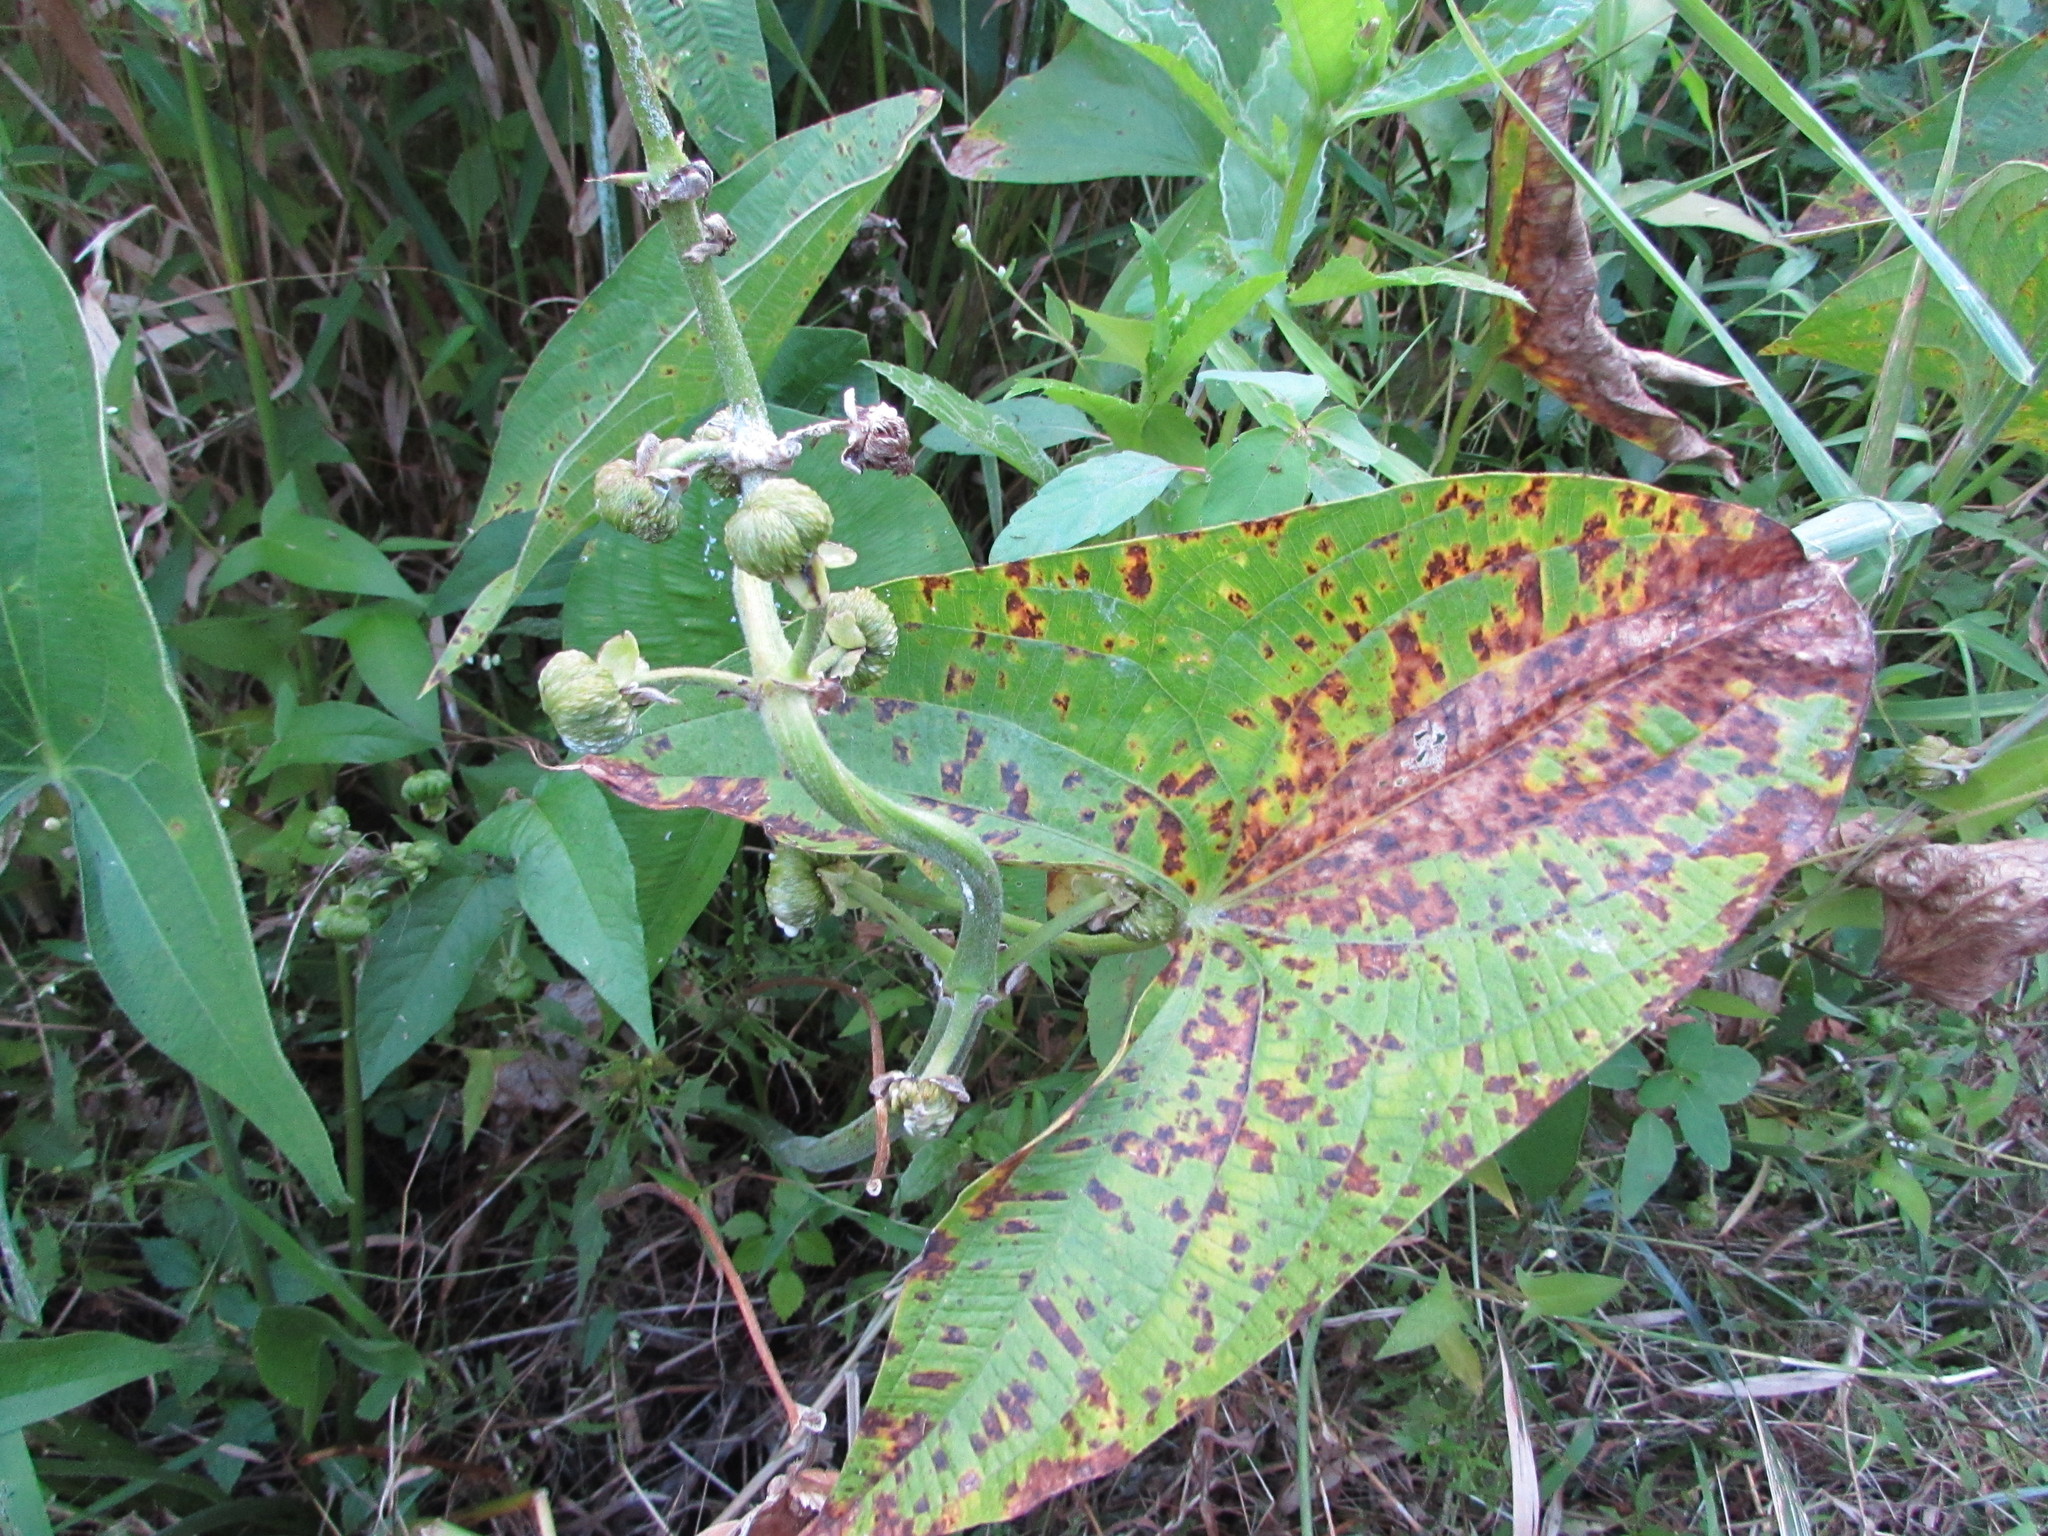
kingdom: Plantae
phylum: Tracheophyta
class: Liliopsida
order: Alismatales
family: Alismataceae
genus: Sagittaria
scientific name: Sagittaria latifolia
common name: Duck-potato
